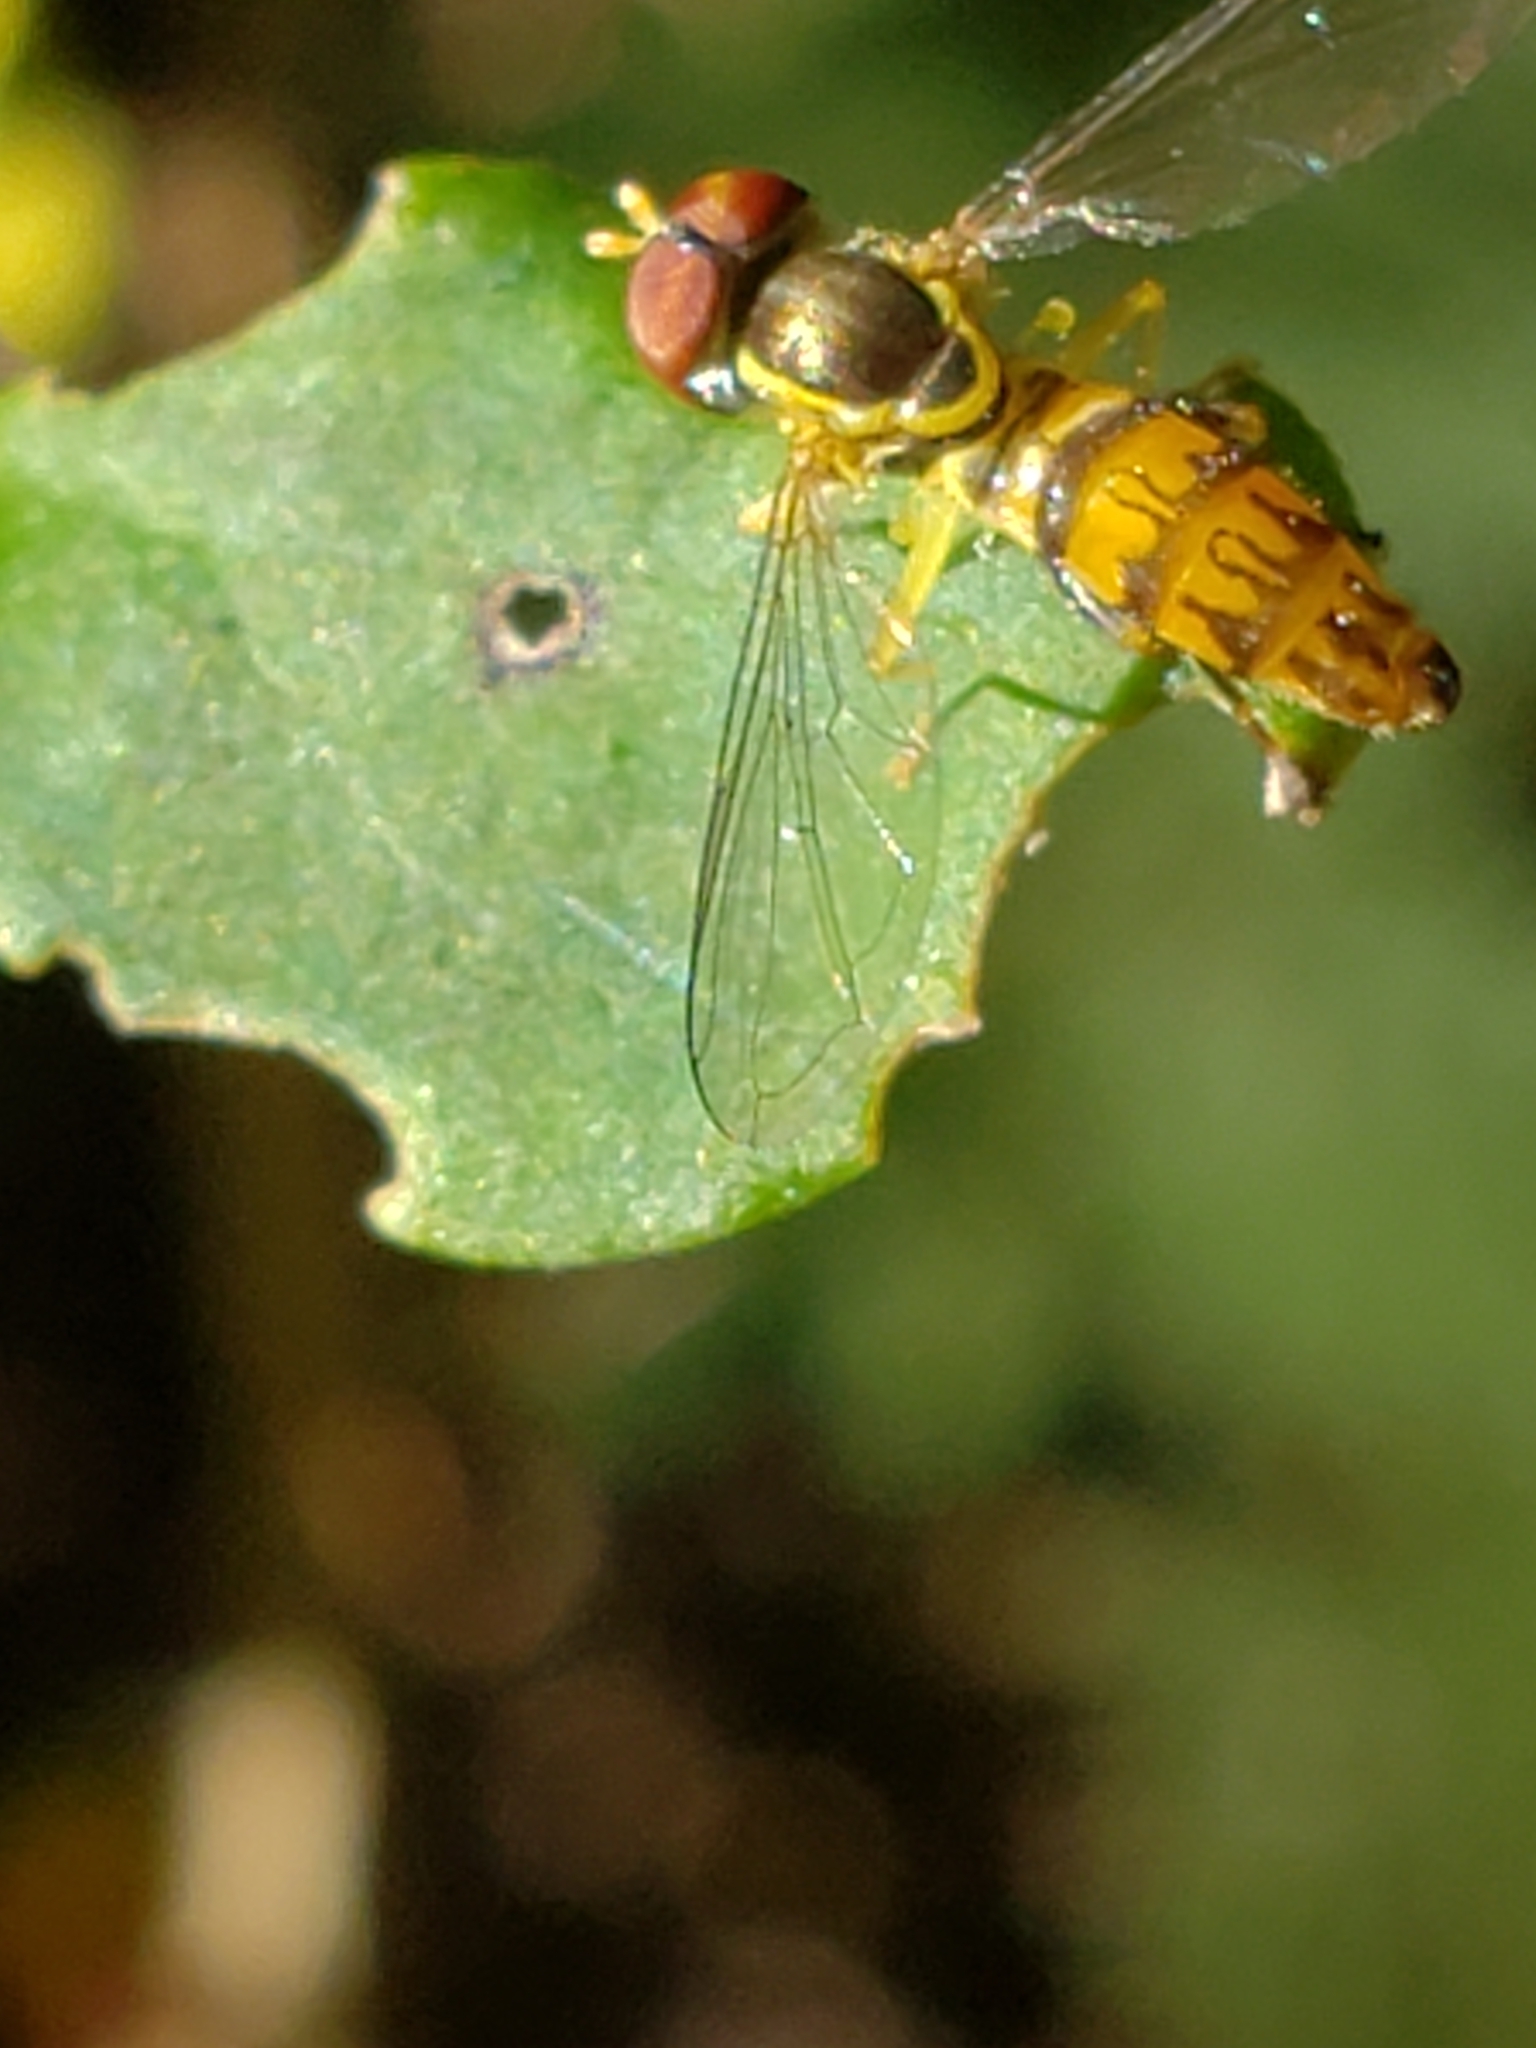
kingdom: Animalia
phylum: Arthropoda
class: Insecta
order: Diptera
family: Syrphidae
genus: Toxomerus
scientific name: Toxomerus geminatus
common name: Eastern calligrapher
